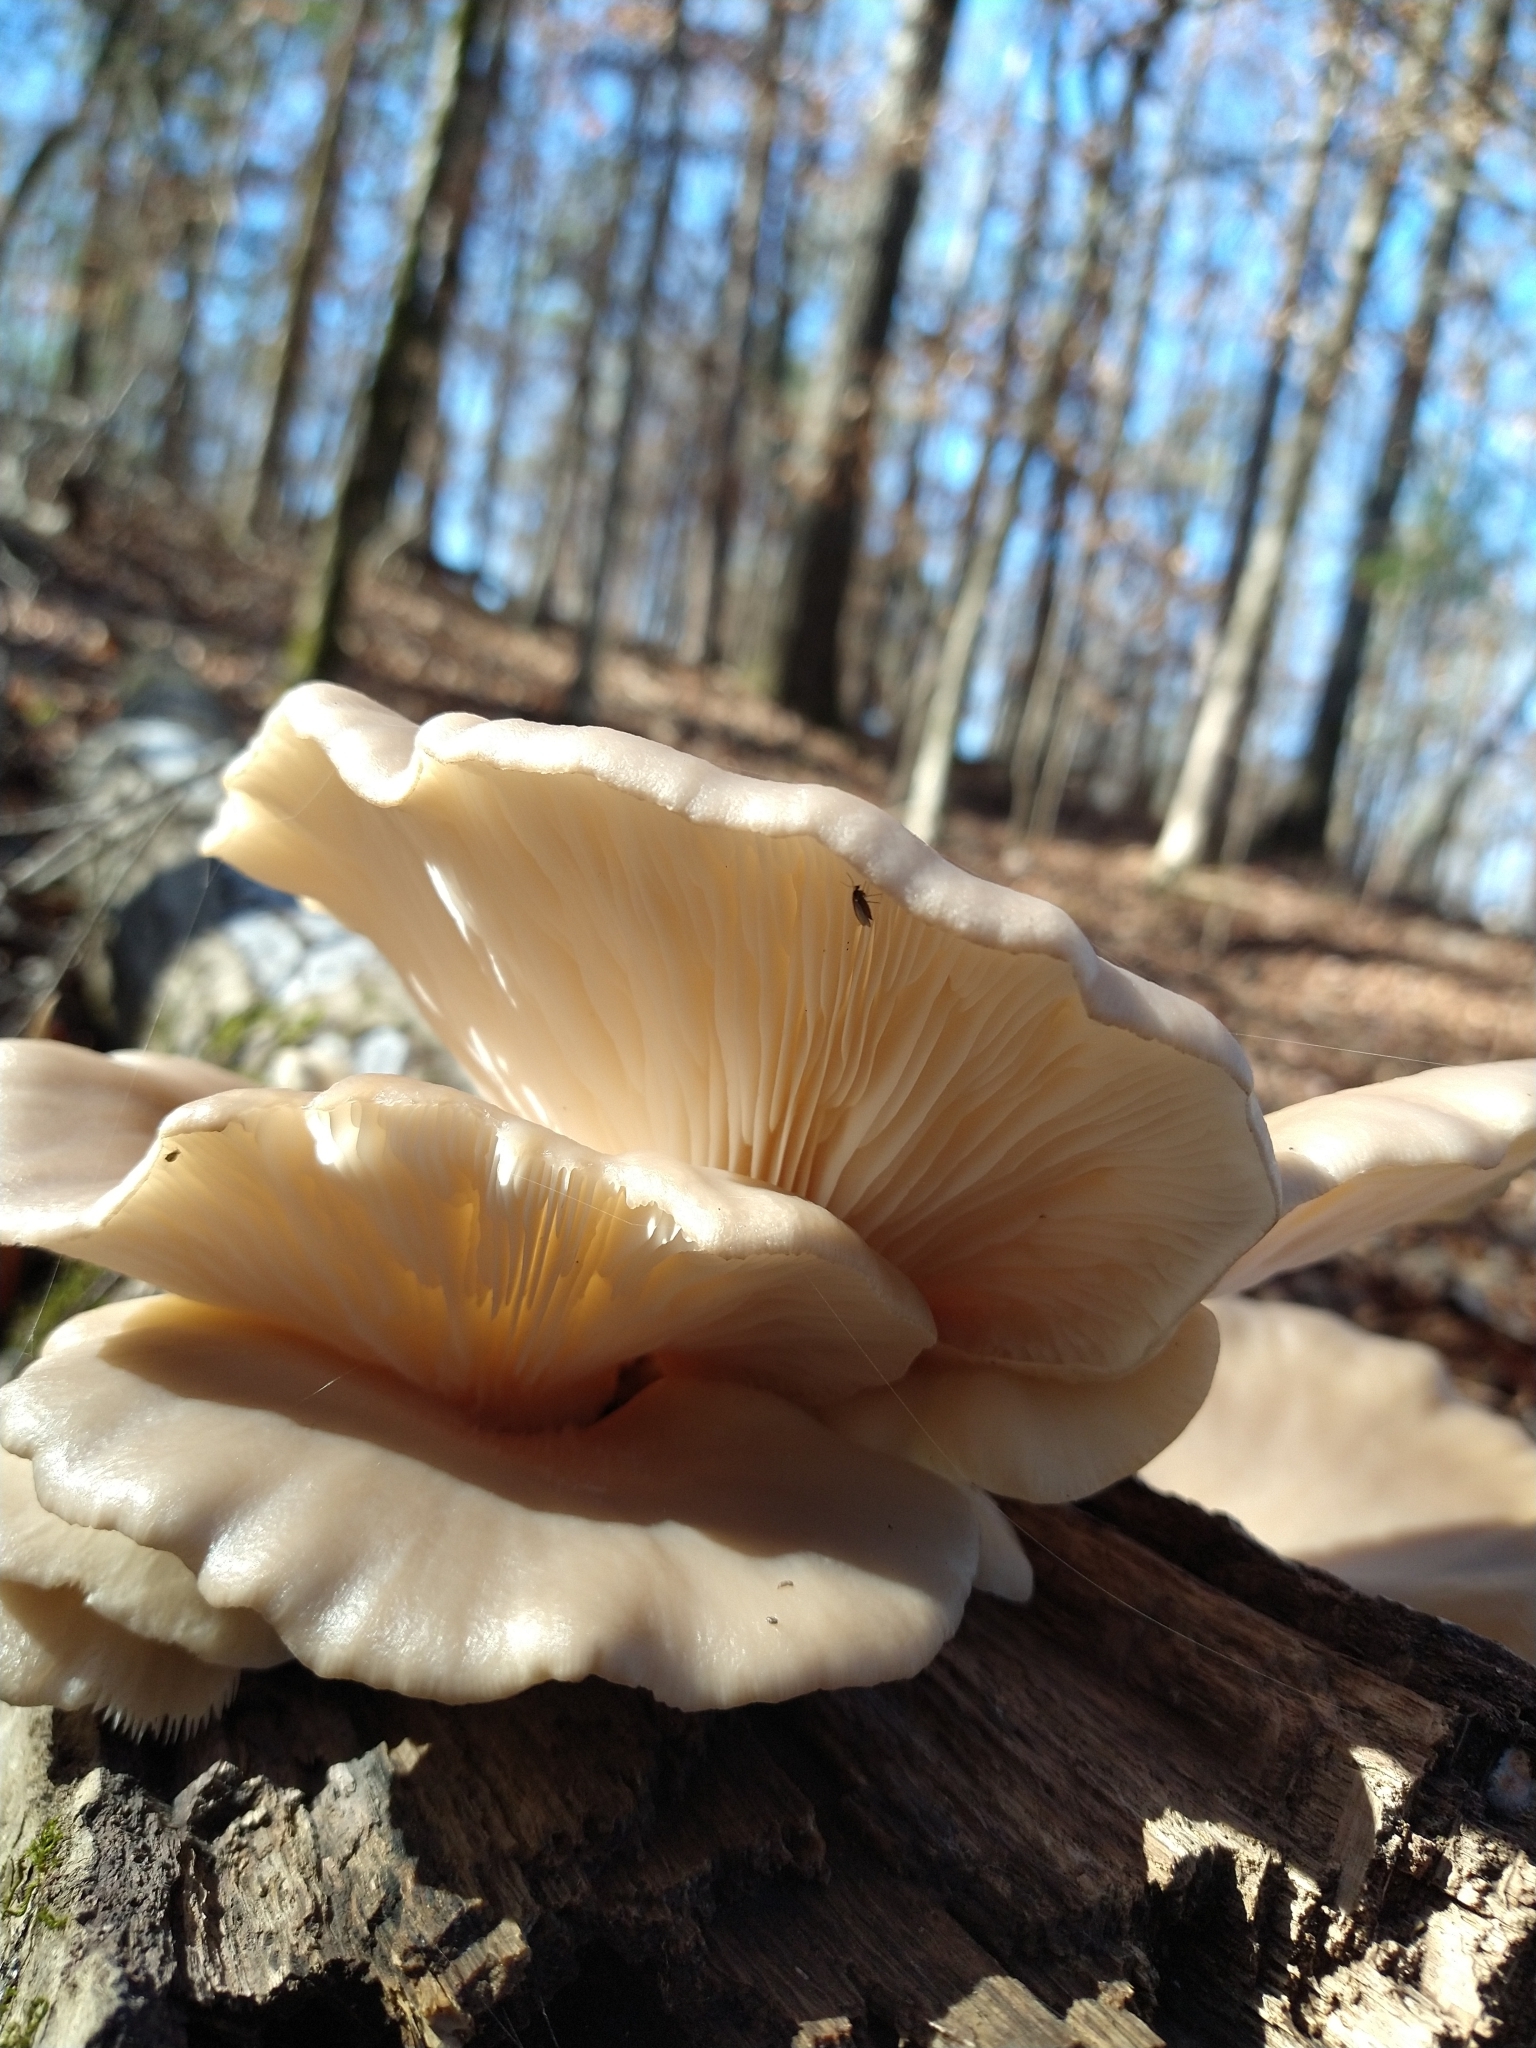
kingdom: Fungi
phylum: Basidiomycota
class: Agaricomycetes
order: Agaricales
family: Pleurotaceae
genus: Pleurotus
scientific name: Pleurotus ostreatus
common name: Oyster mushroom
